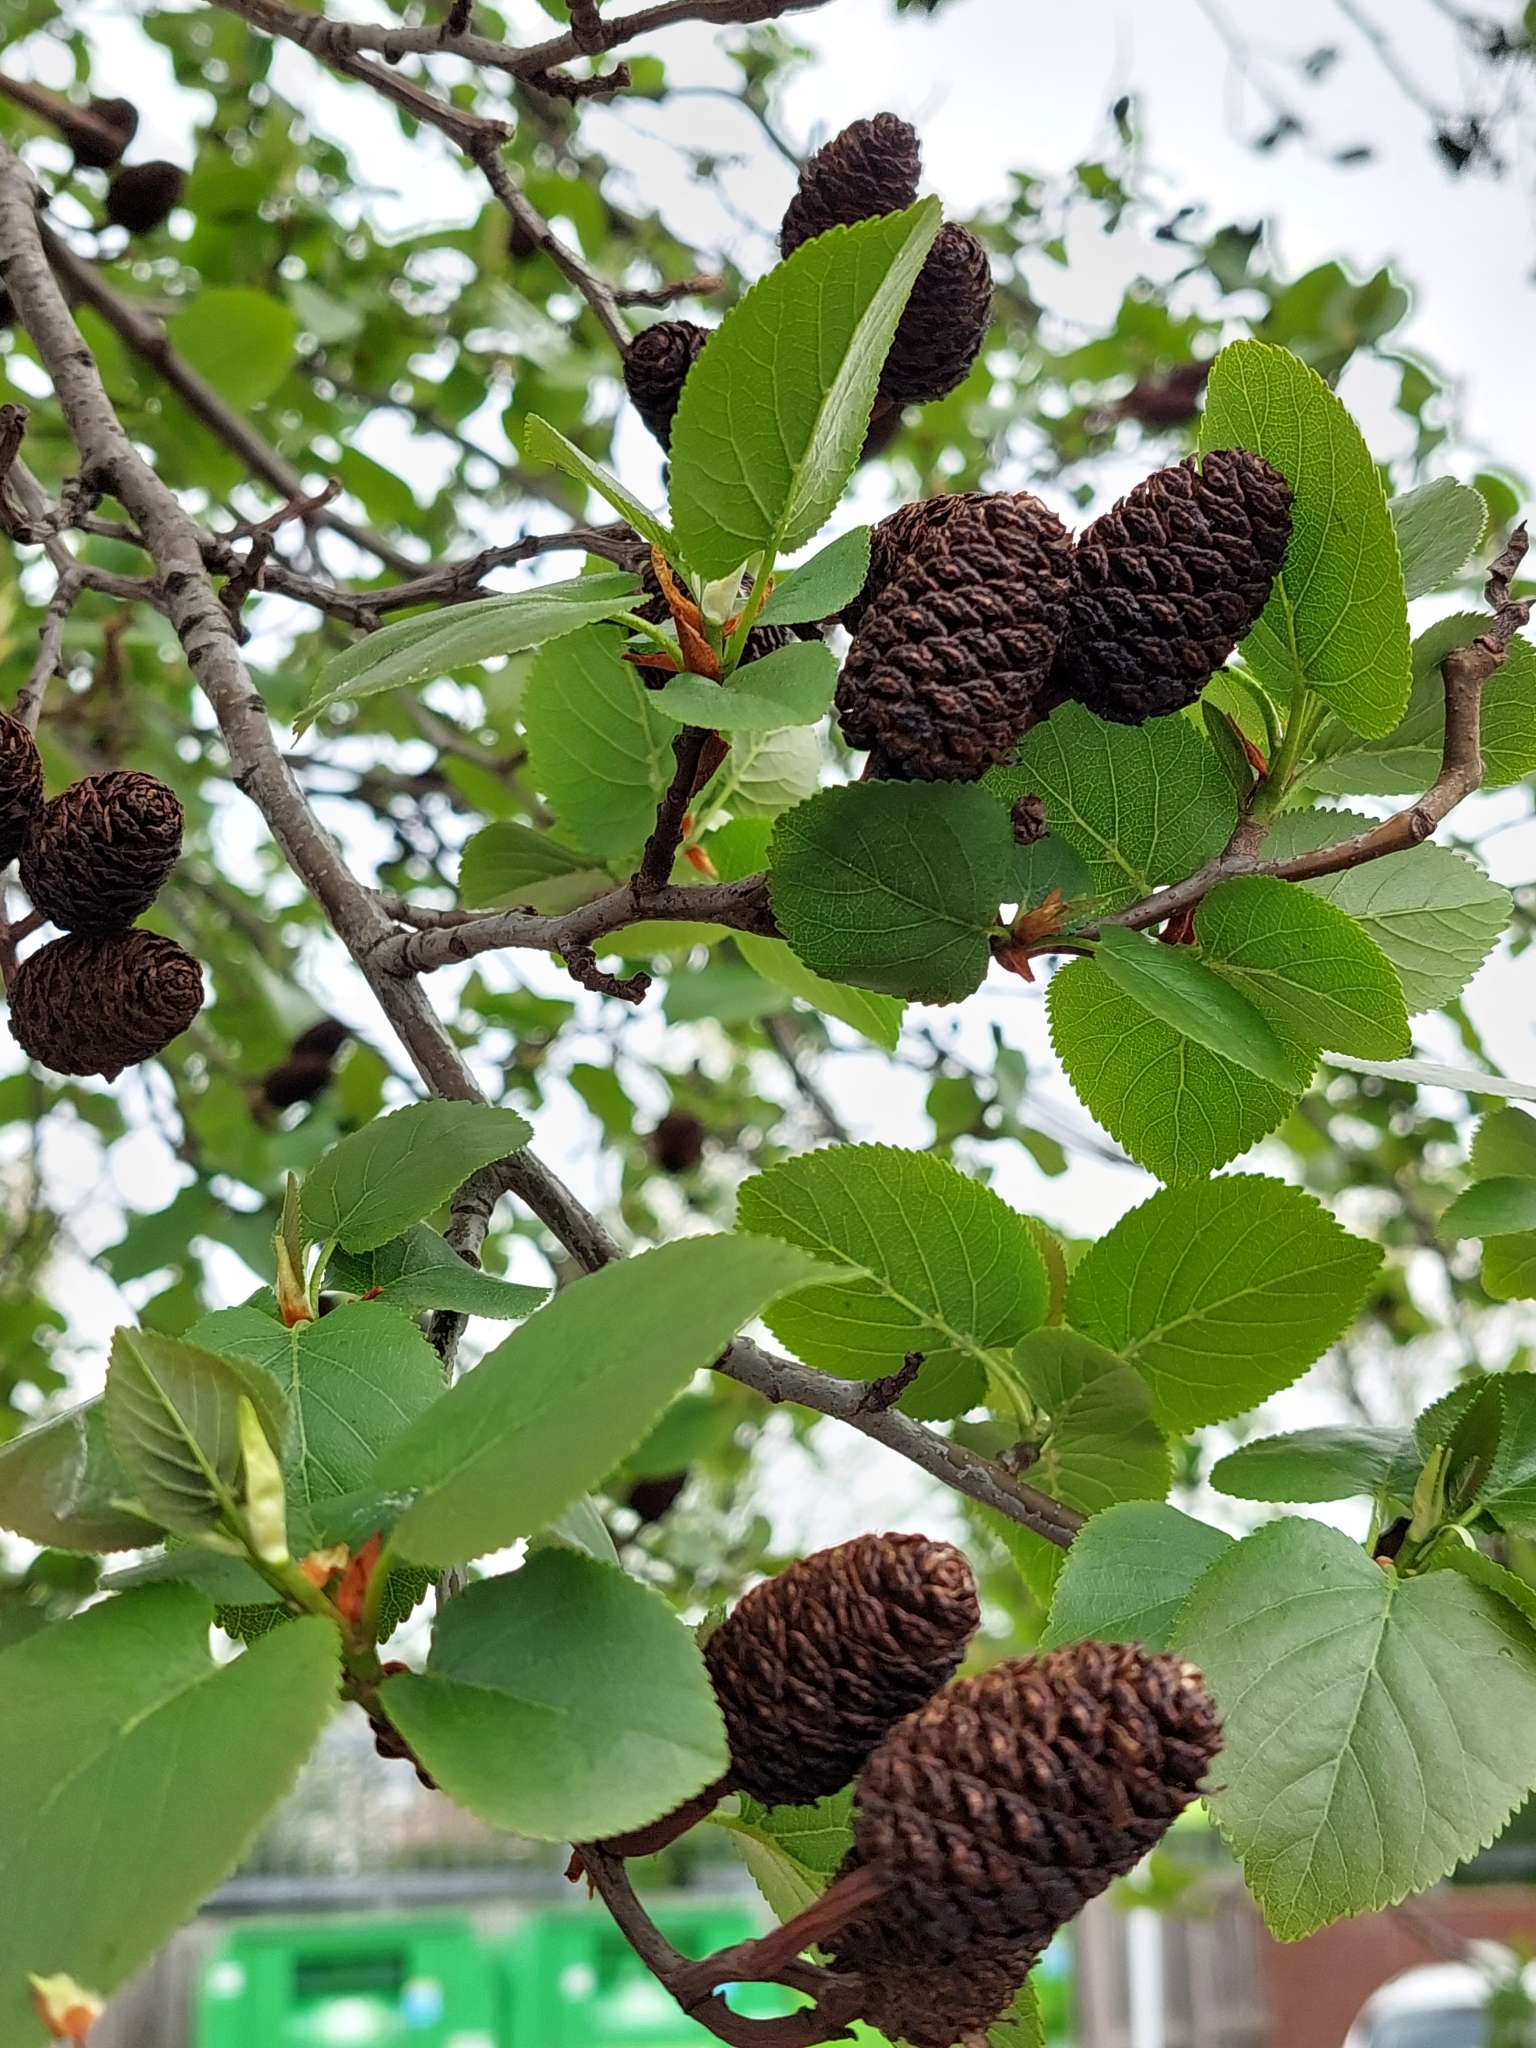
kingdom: Plantae
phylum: Tracheophyta
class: Magnoliopsida
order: Fagales
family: Betulaceae
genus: Alnus
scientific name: Alnus cordata
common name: Italian alder
